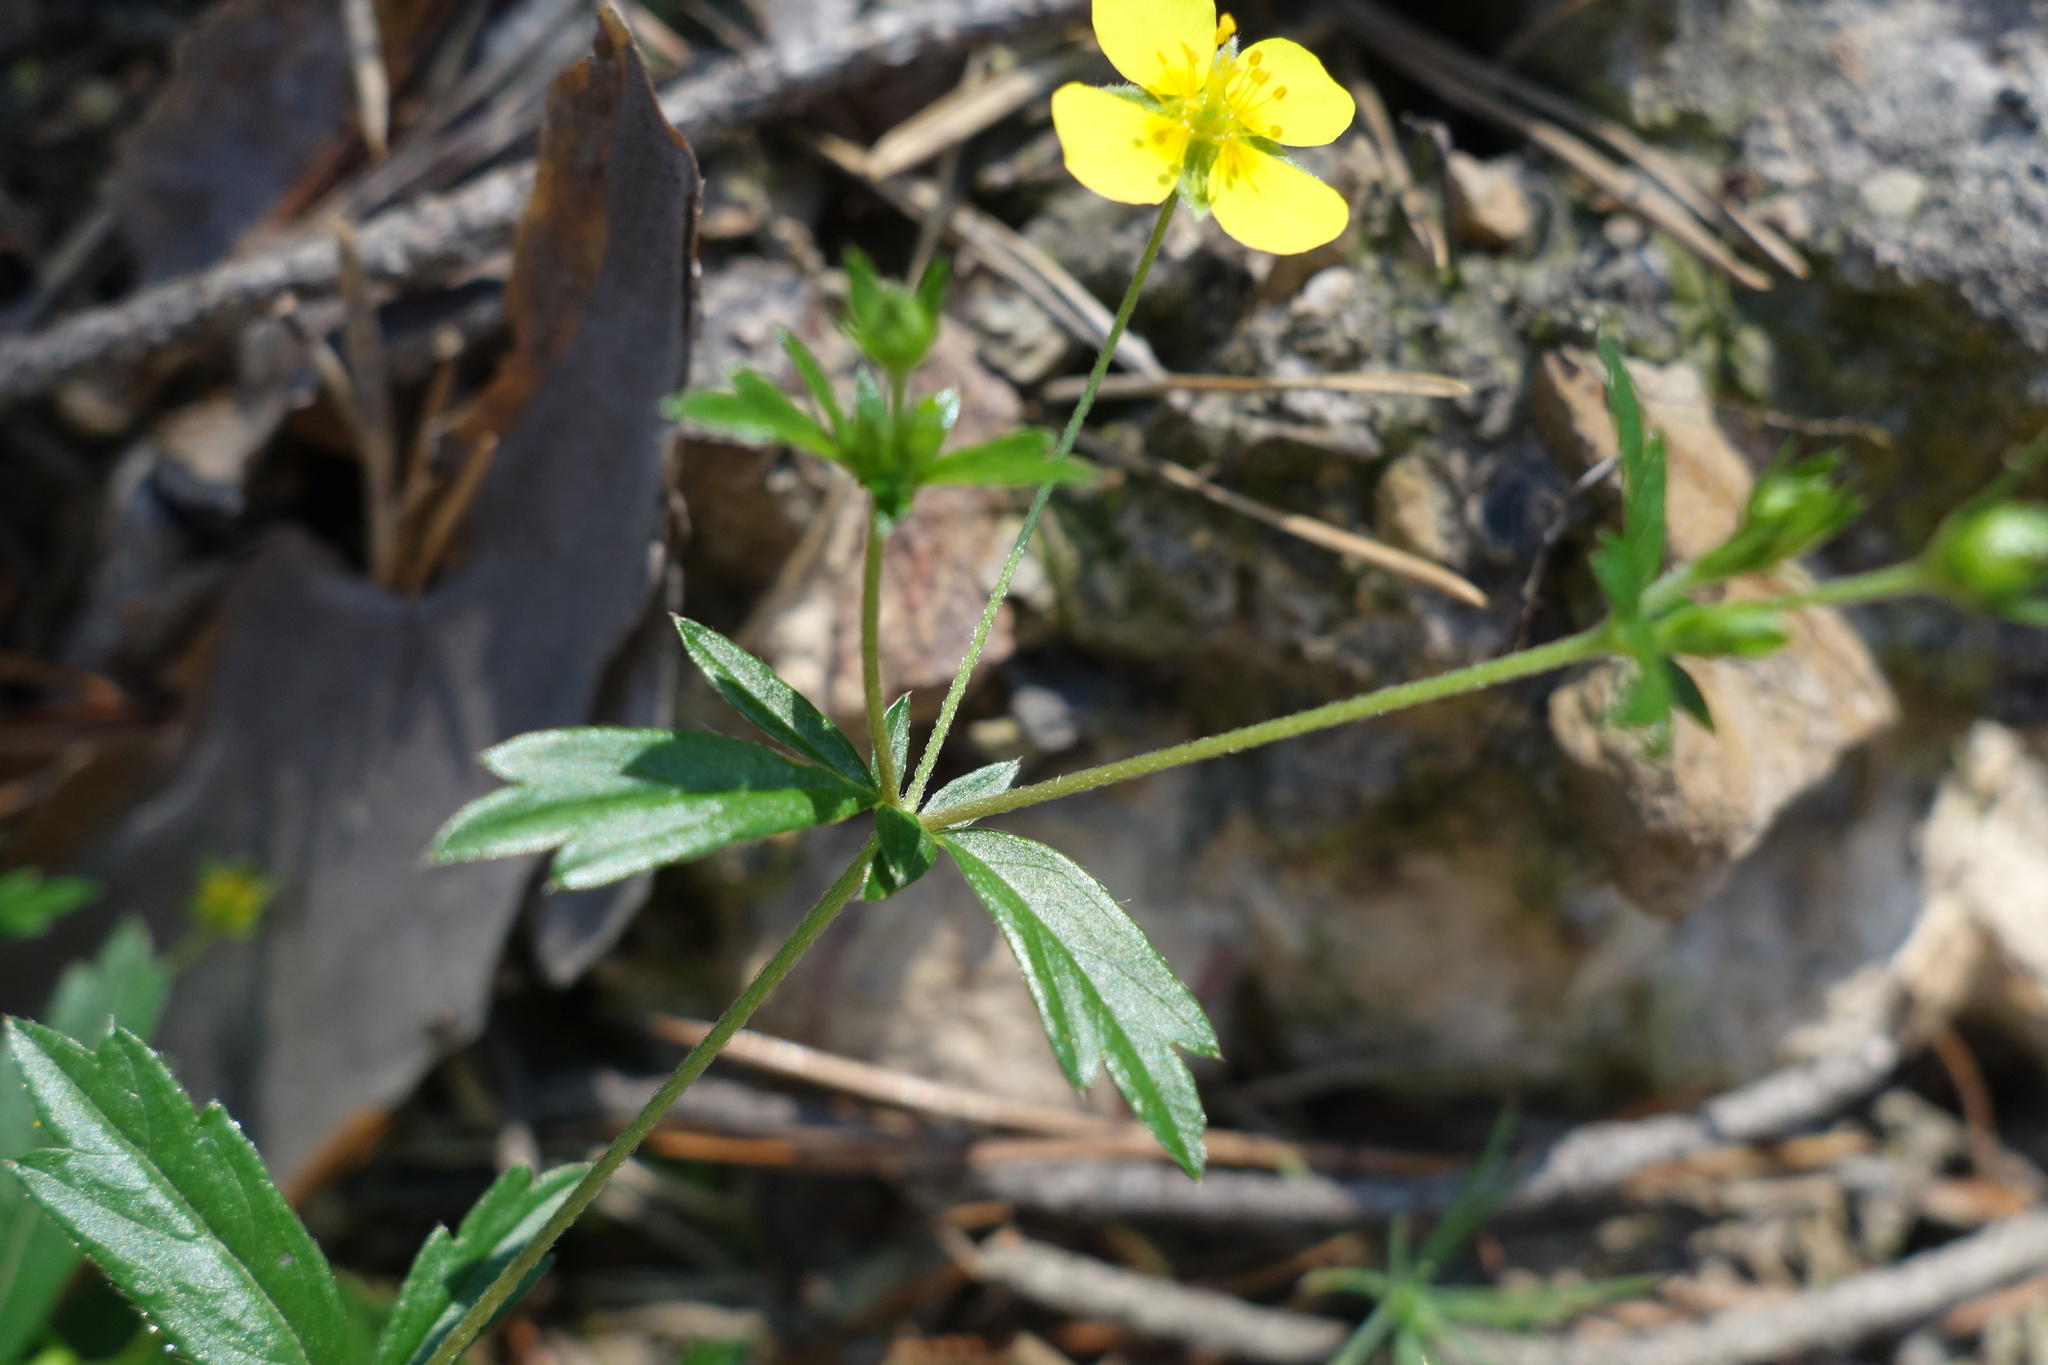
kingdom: Plantae
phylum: Tracheophyta
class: Magnoliopsida
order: Rosales
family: Rosaceae
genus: Potentilla
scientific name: Potentilla erecta
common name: Tormentil
